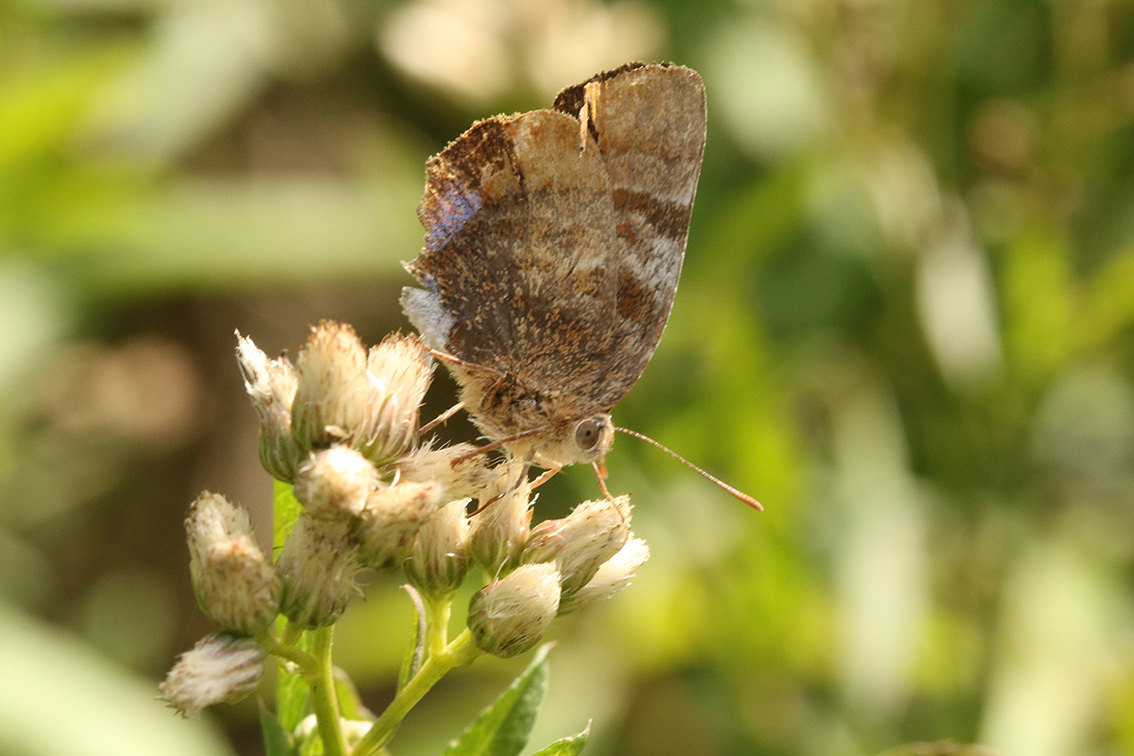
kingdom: Animalia
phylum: Arthropoda
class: Insecta
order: Lepidoptera
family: Lycaenidae
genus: Thecla
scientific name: Thecla marius
